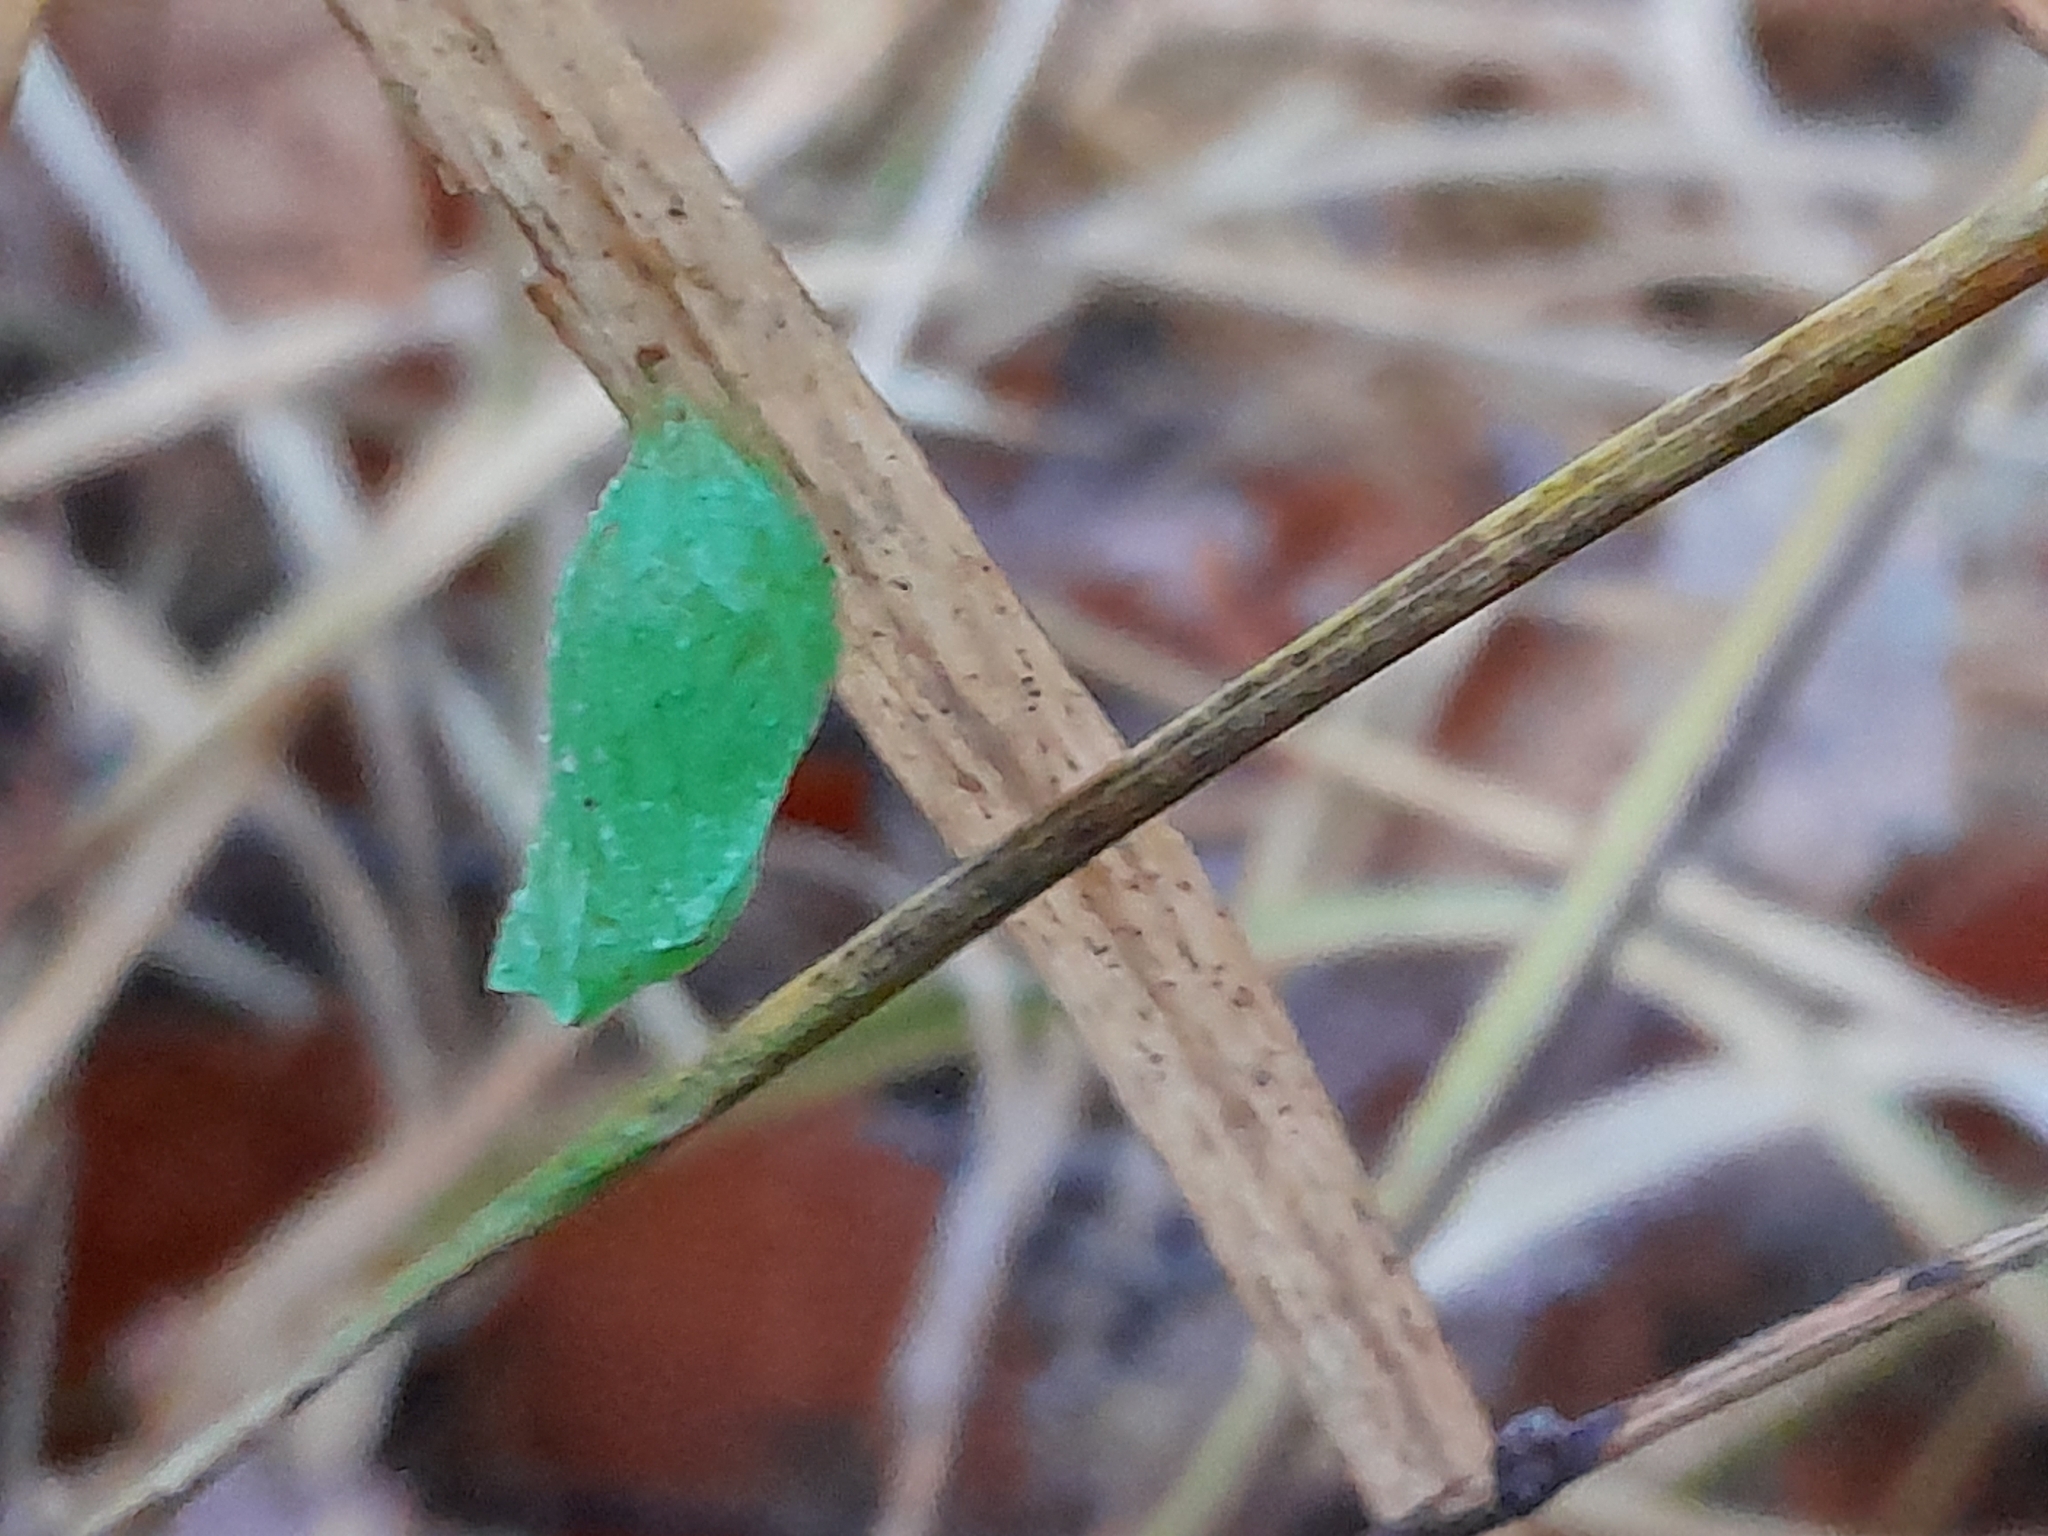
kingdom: Animalia
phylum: Arthropoda
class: Insecta
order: Lepidoptera
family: Nymphalidae
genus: Pararge
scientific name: Pararge aegeria
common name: Speckled wood
